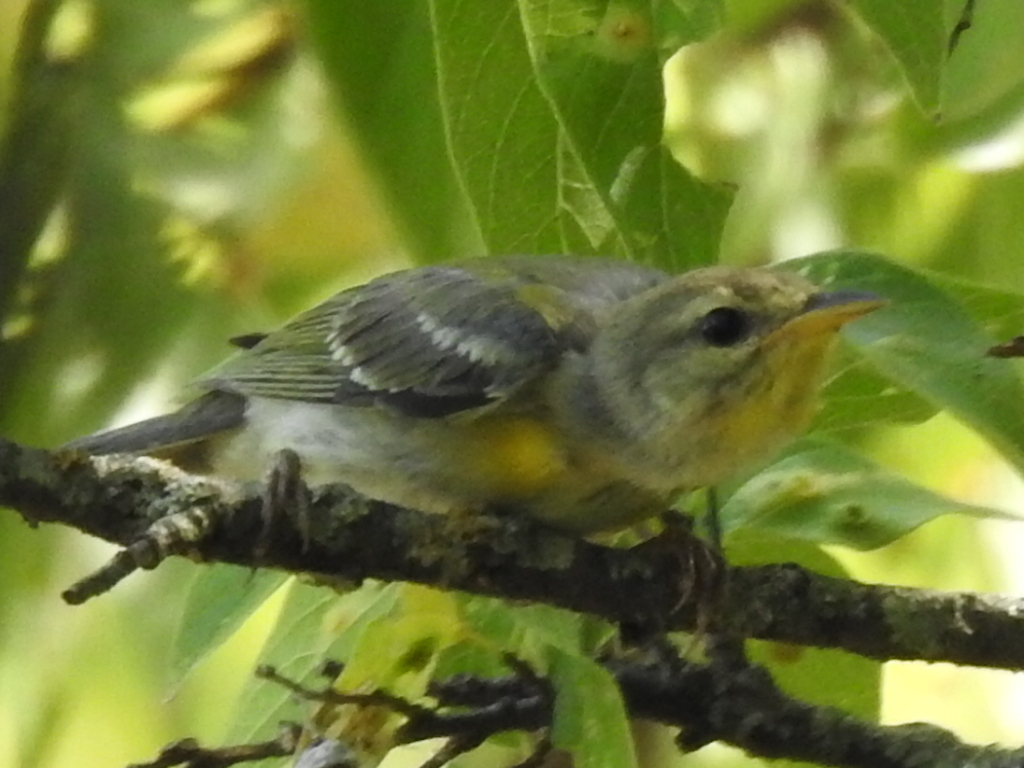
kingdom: Animalia
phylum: Chordata
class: Aves
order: Passeriformes
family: Parulidae
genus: Setophaga
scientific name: Setophaga americana
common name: Northern parula
